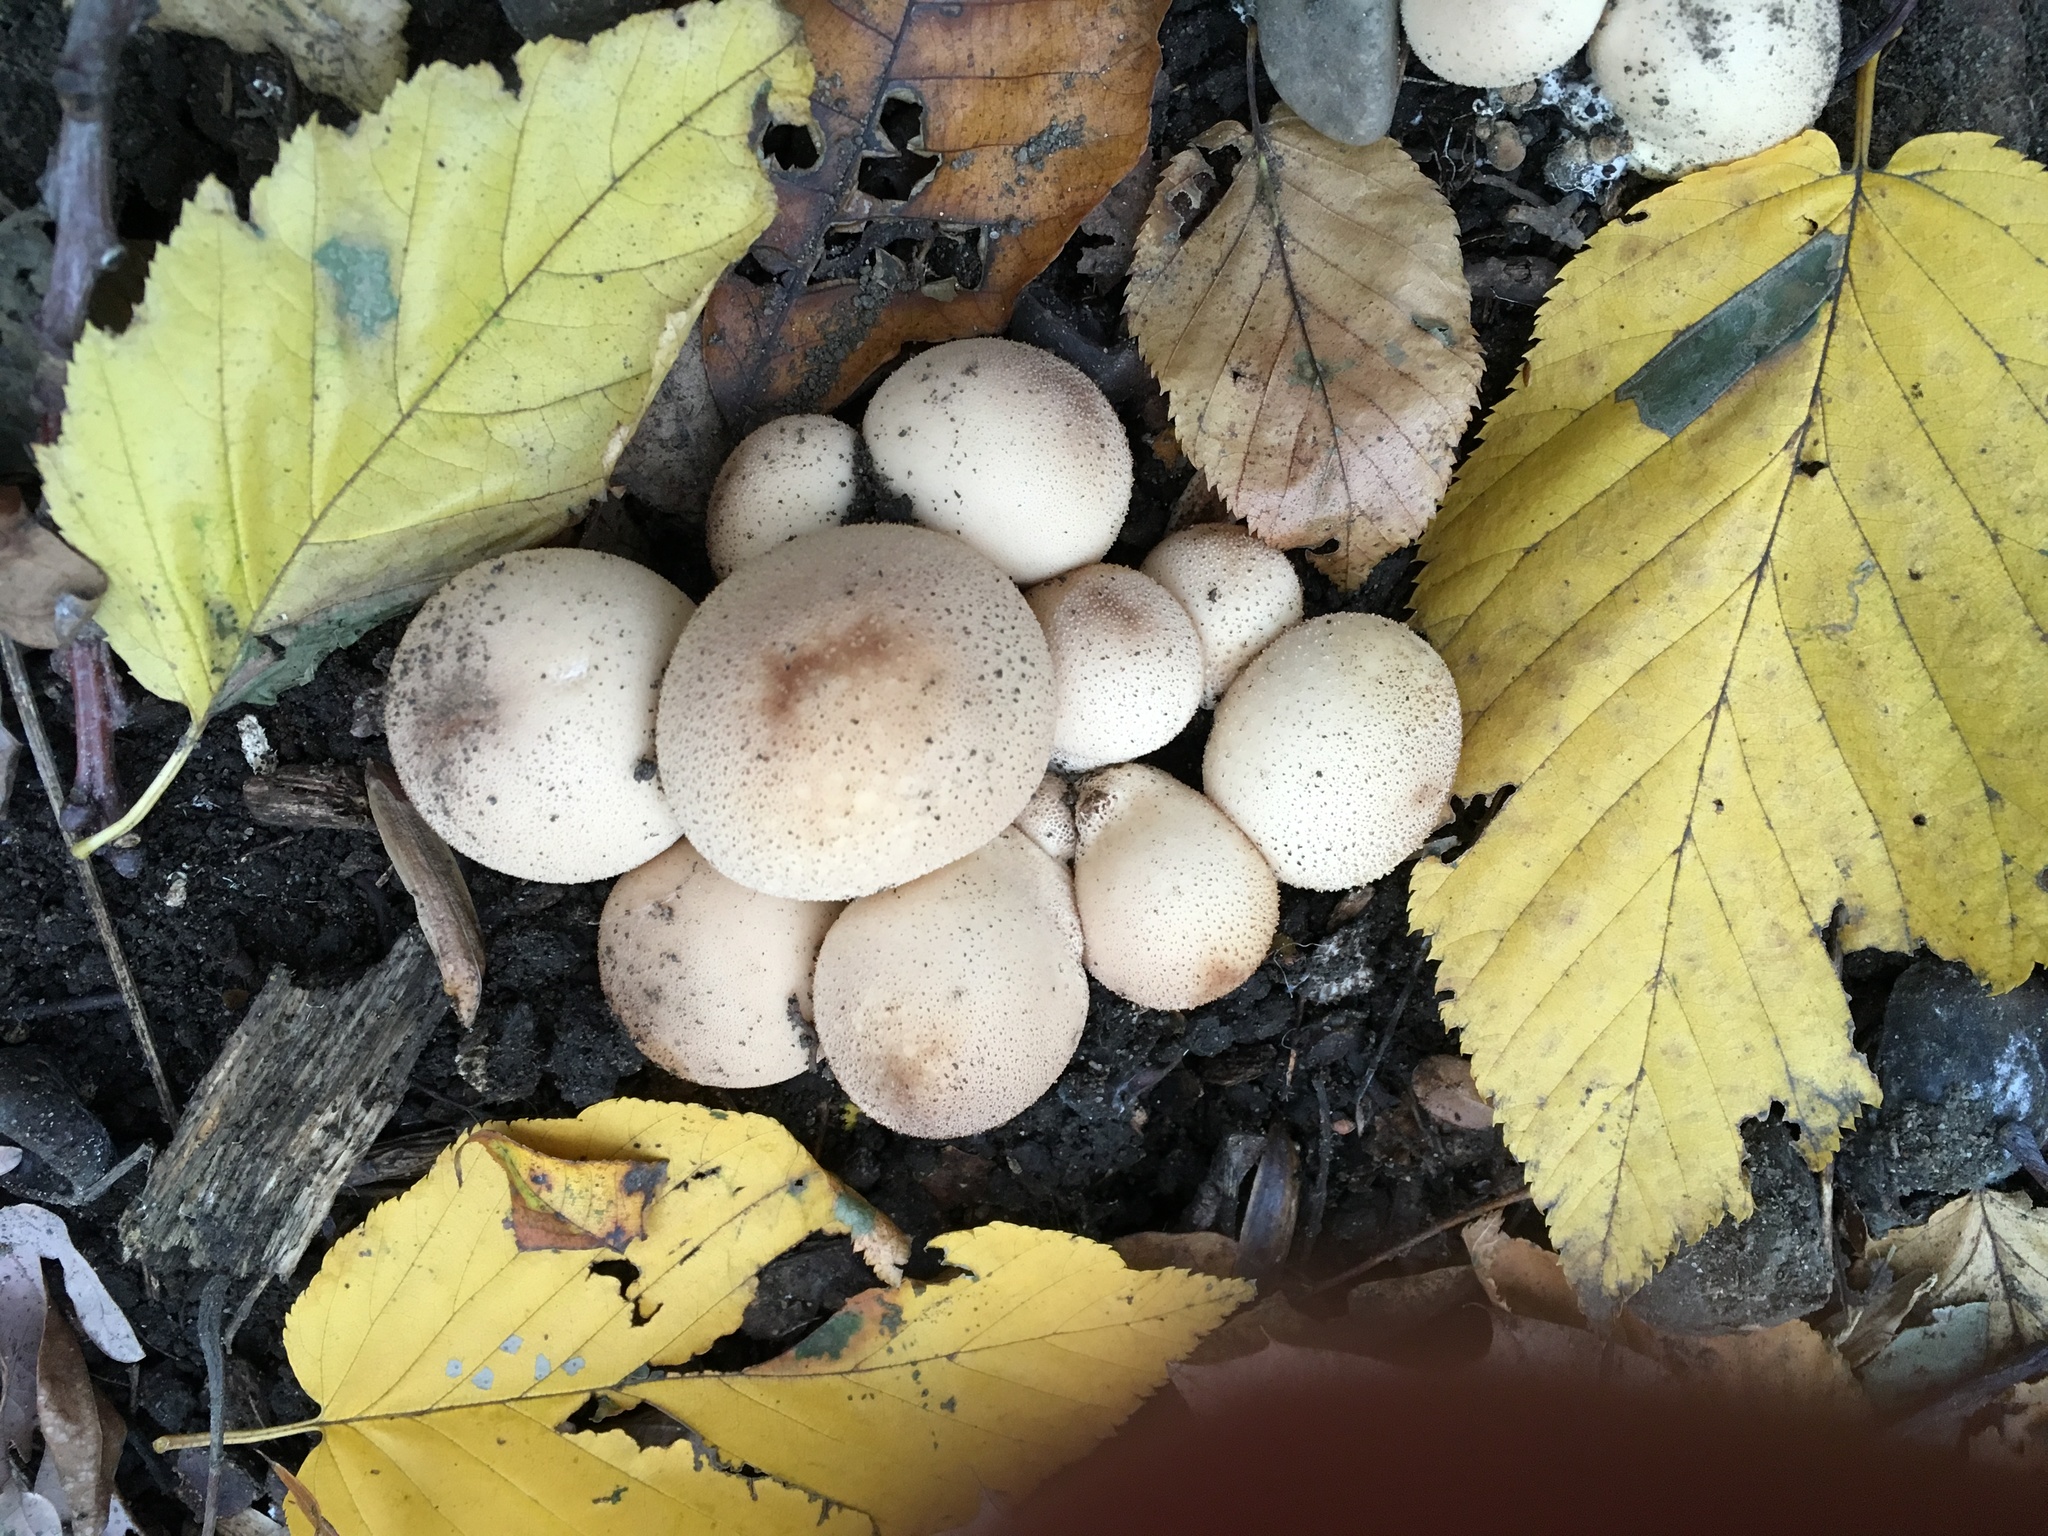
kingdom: Fungi
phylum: Basidiomycota
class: Agaricomycetes
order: Agaricales
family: Lycoperdaceae
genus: Lycoperdon
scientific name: Lycoperdon perlatum
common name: Common puffball
